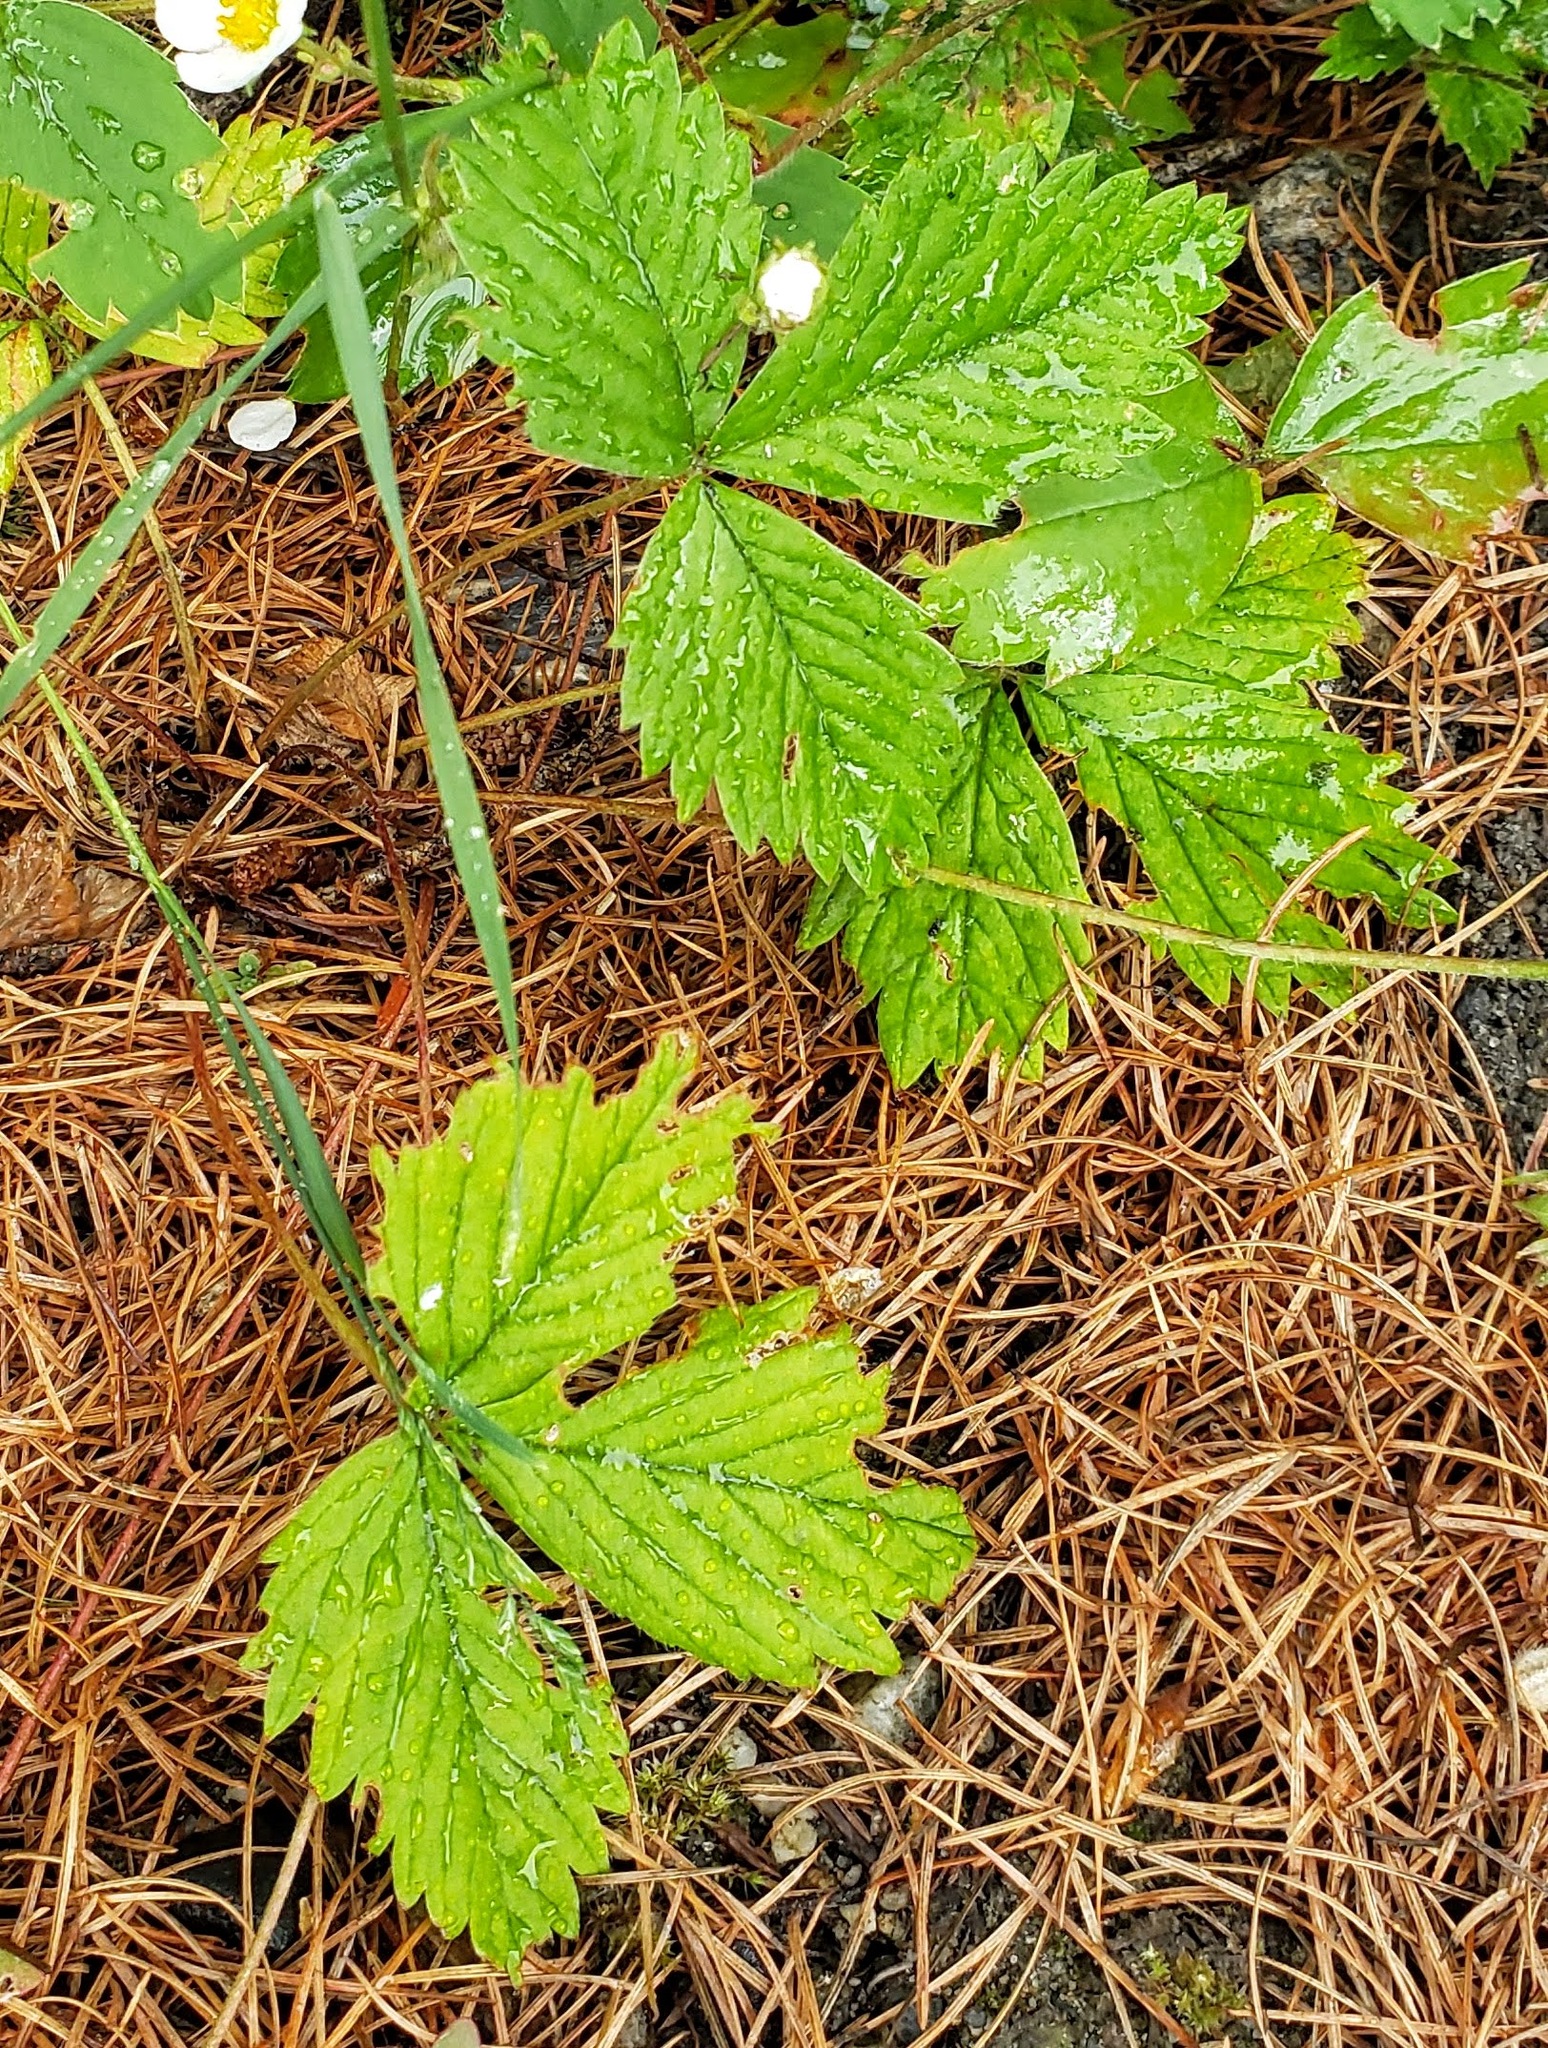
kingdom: Plantae
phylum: Tracheophyta
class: Magnoliopsida
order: Rosales
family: Rosaceae
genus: Fragaria
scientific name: Fragaria vesca
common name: Wild strawberry
